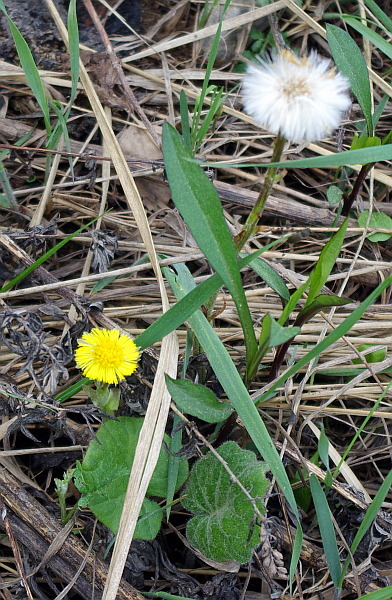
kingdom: Plantae
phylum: Tracheophyta
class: Magnoliopsida
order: Asterales
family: Asteraceae
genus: Tussilago
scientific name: Tussilago farfara
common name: Coltsfoot
